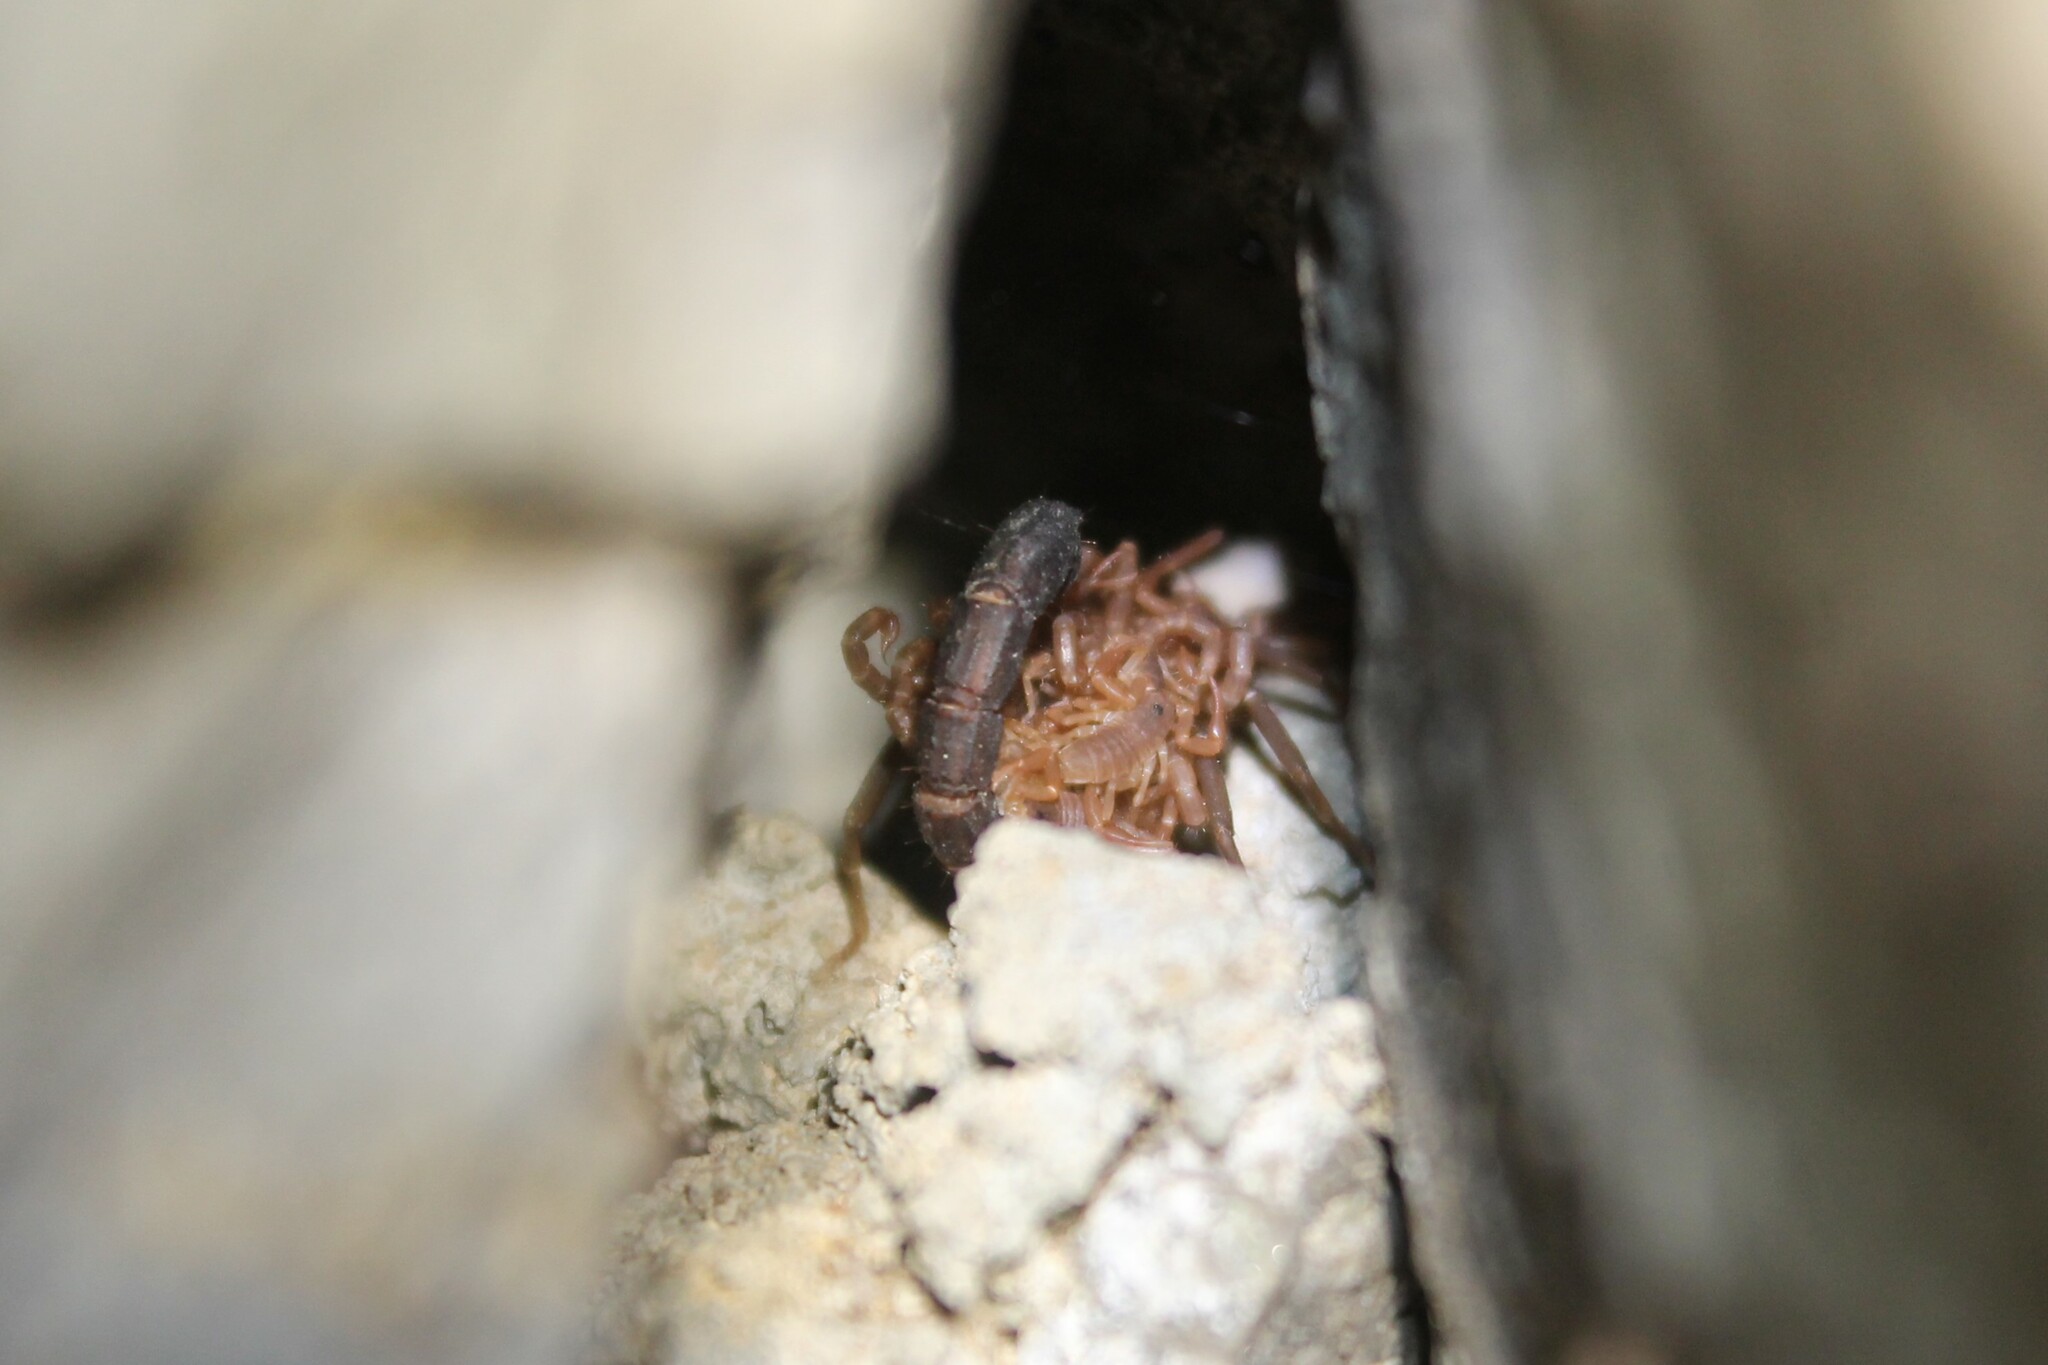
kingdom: Animalia
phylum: Arthropoda
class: Arachnida
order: Scorpiones
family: Vaejovidae
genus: Vaejovis
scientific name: Vaejovis carolinianus
